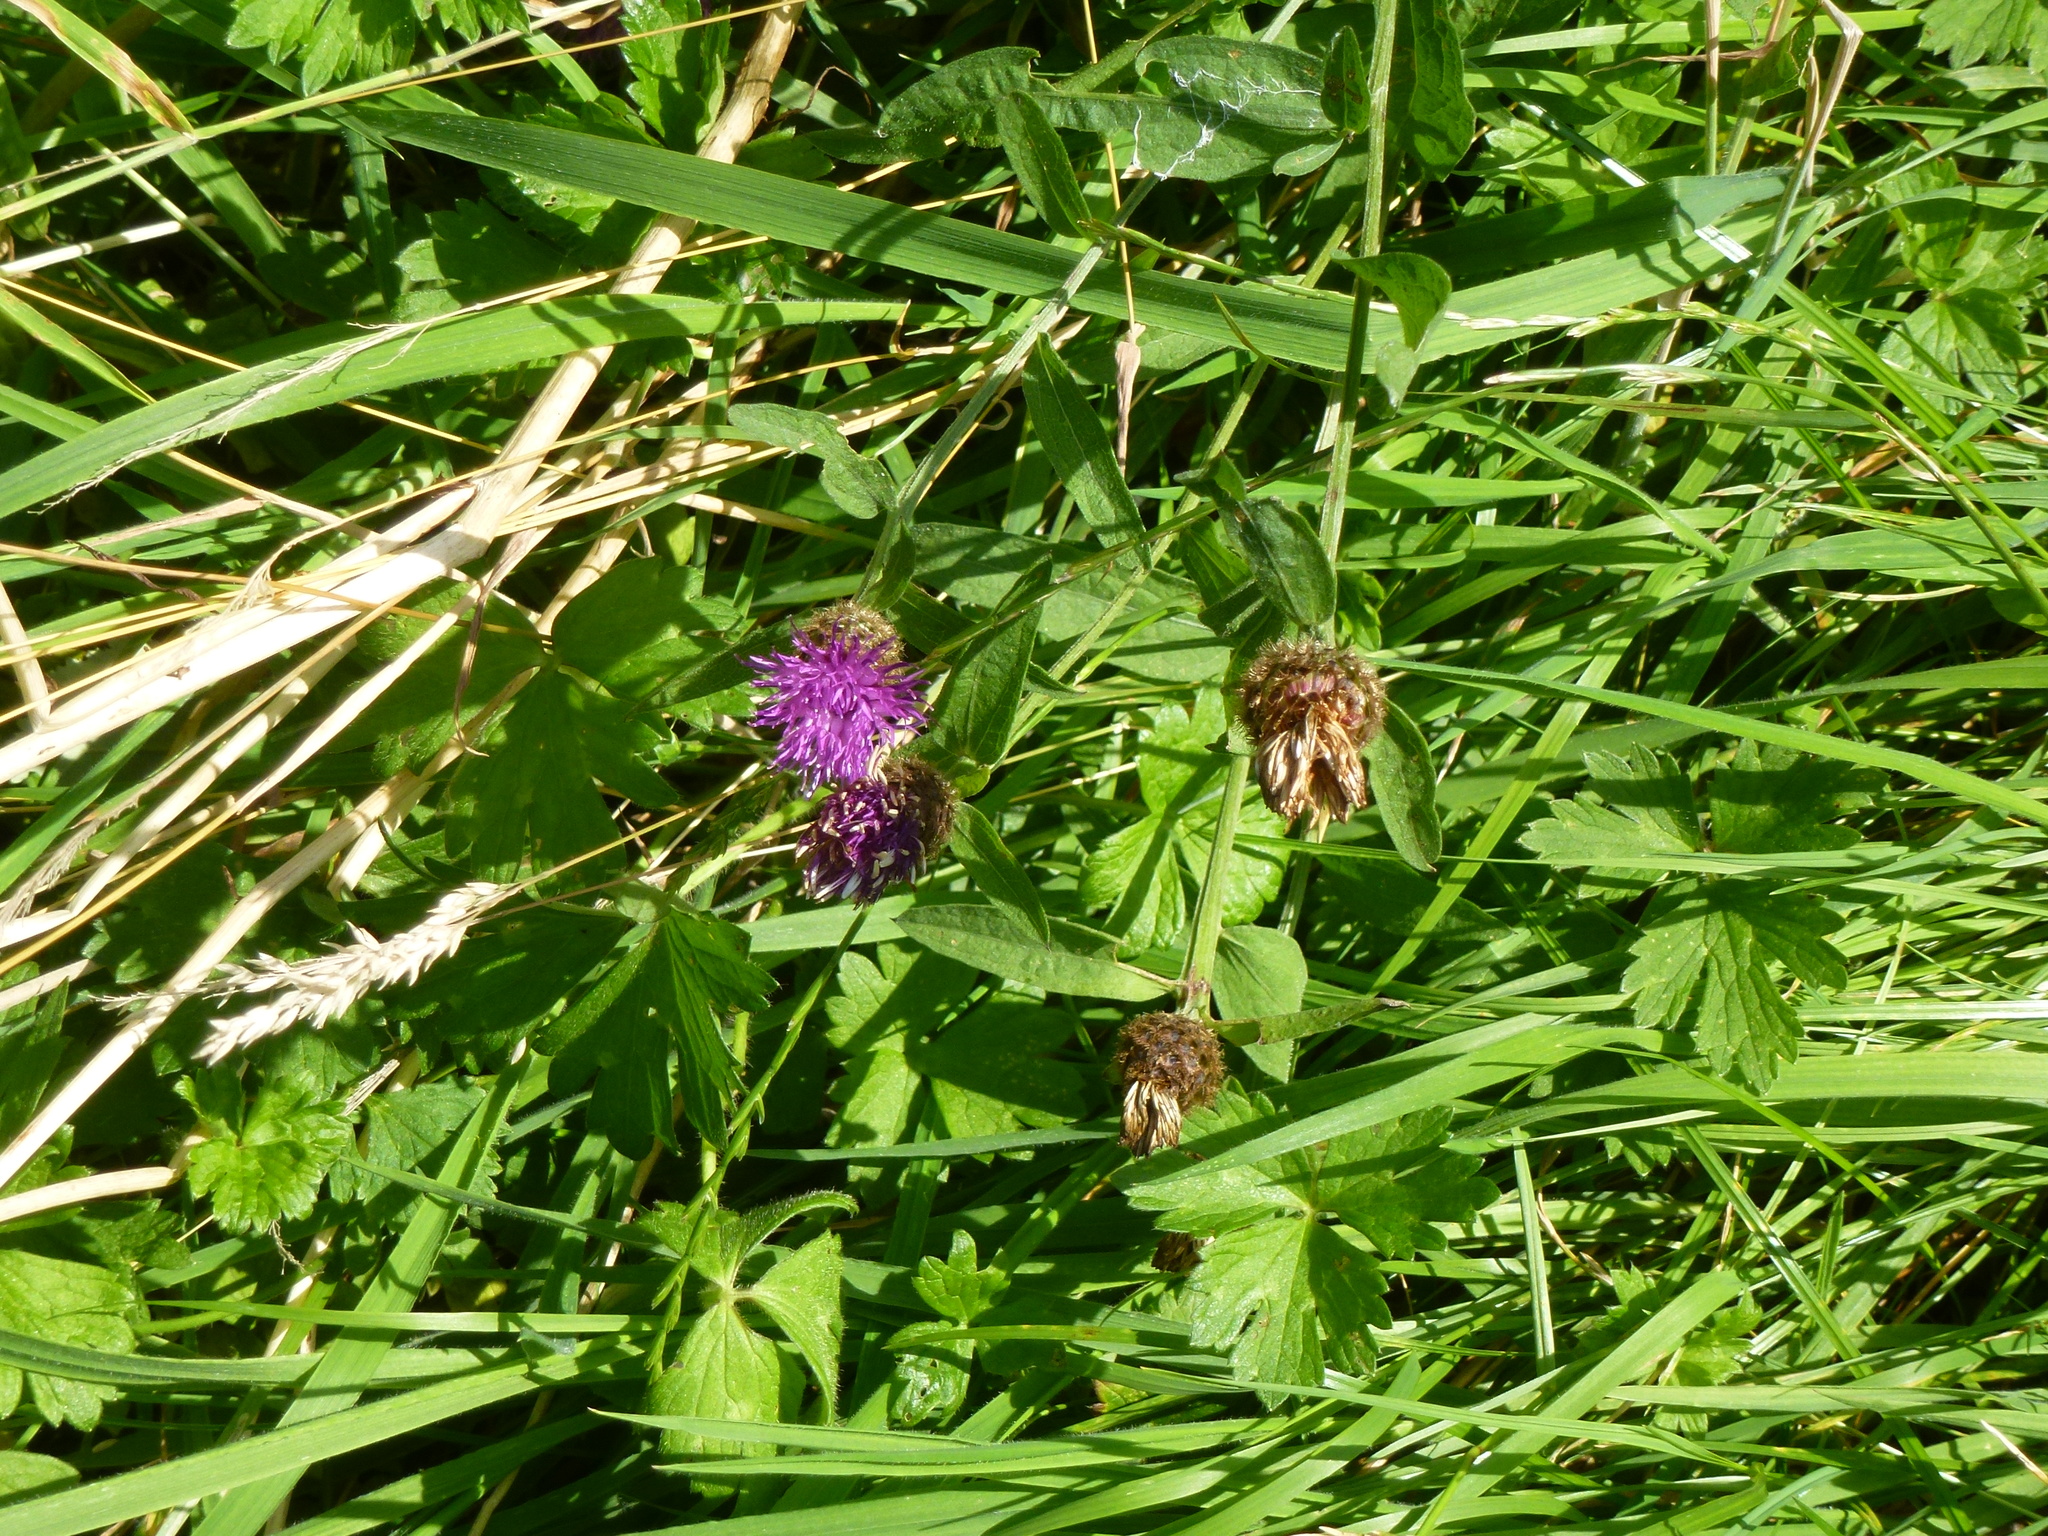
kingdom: Plantae
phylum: Tracheophyta
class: Magnoliopsida
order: Asterales
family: Asteraceae
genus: Centaurea
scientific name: Centaurea nigra
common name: Lesser knapweed
